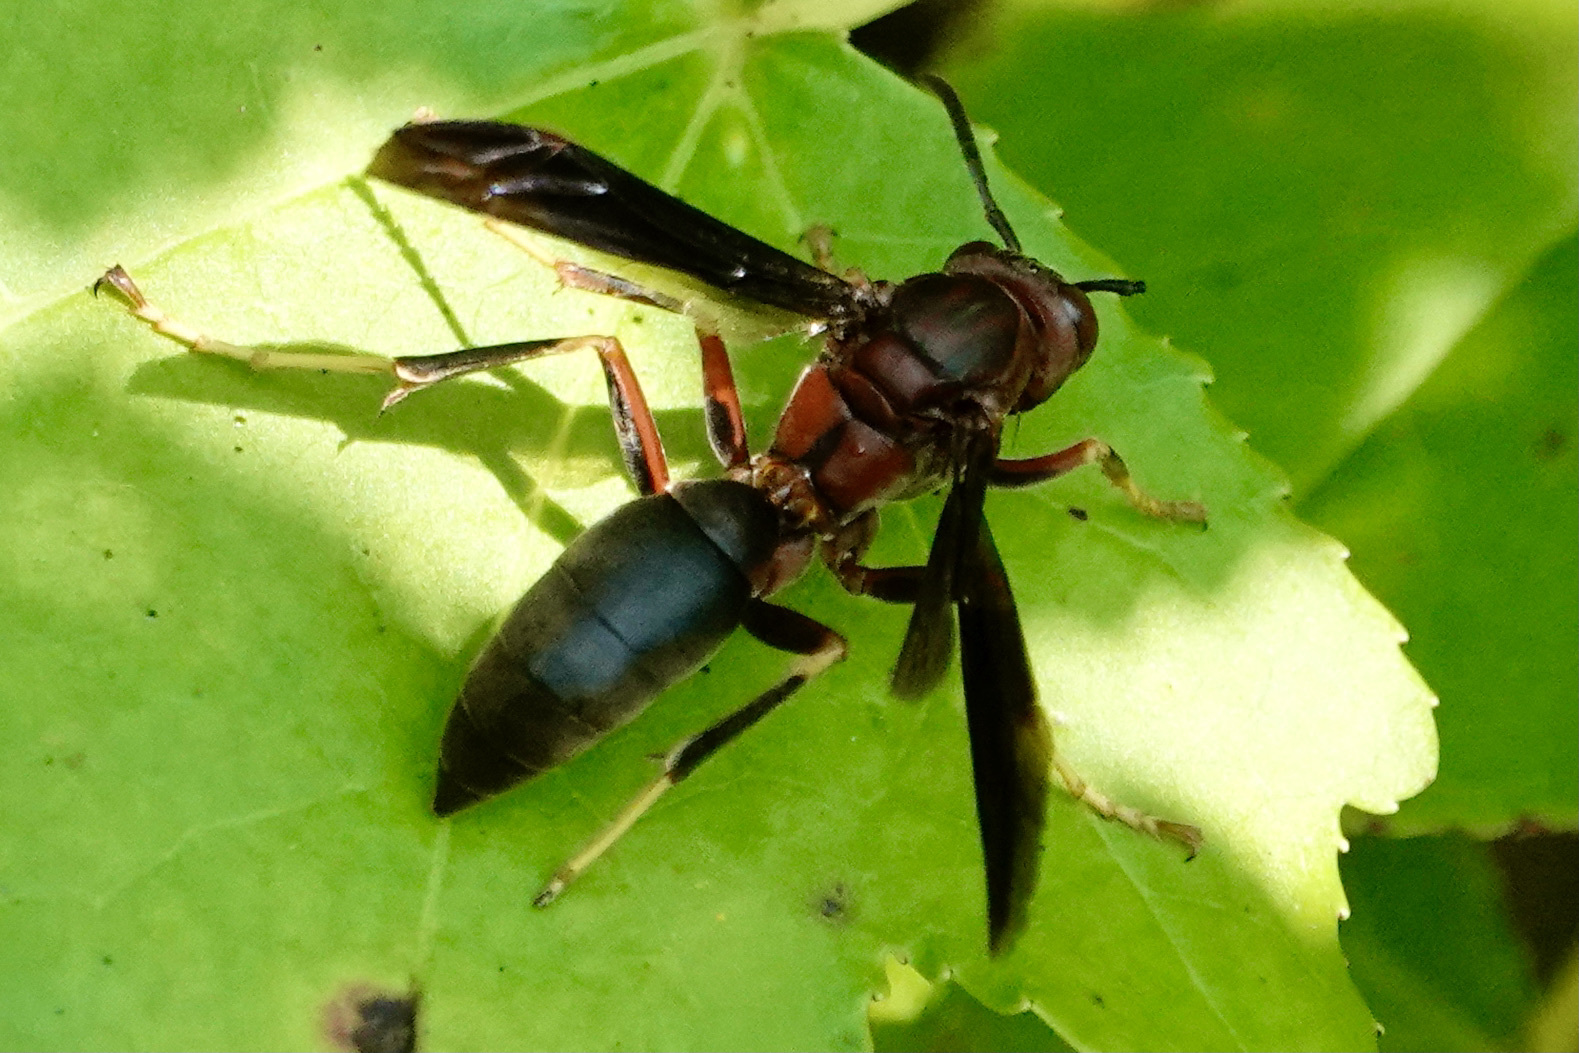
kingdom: Animalia
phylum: Arthropoda
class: Insecta
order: Hymenoptera
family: Eumenidae
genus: Polistes
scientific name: Polistes metricus
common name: Metric paper wasp
